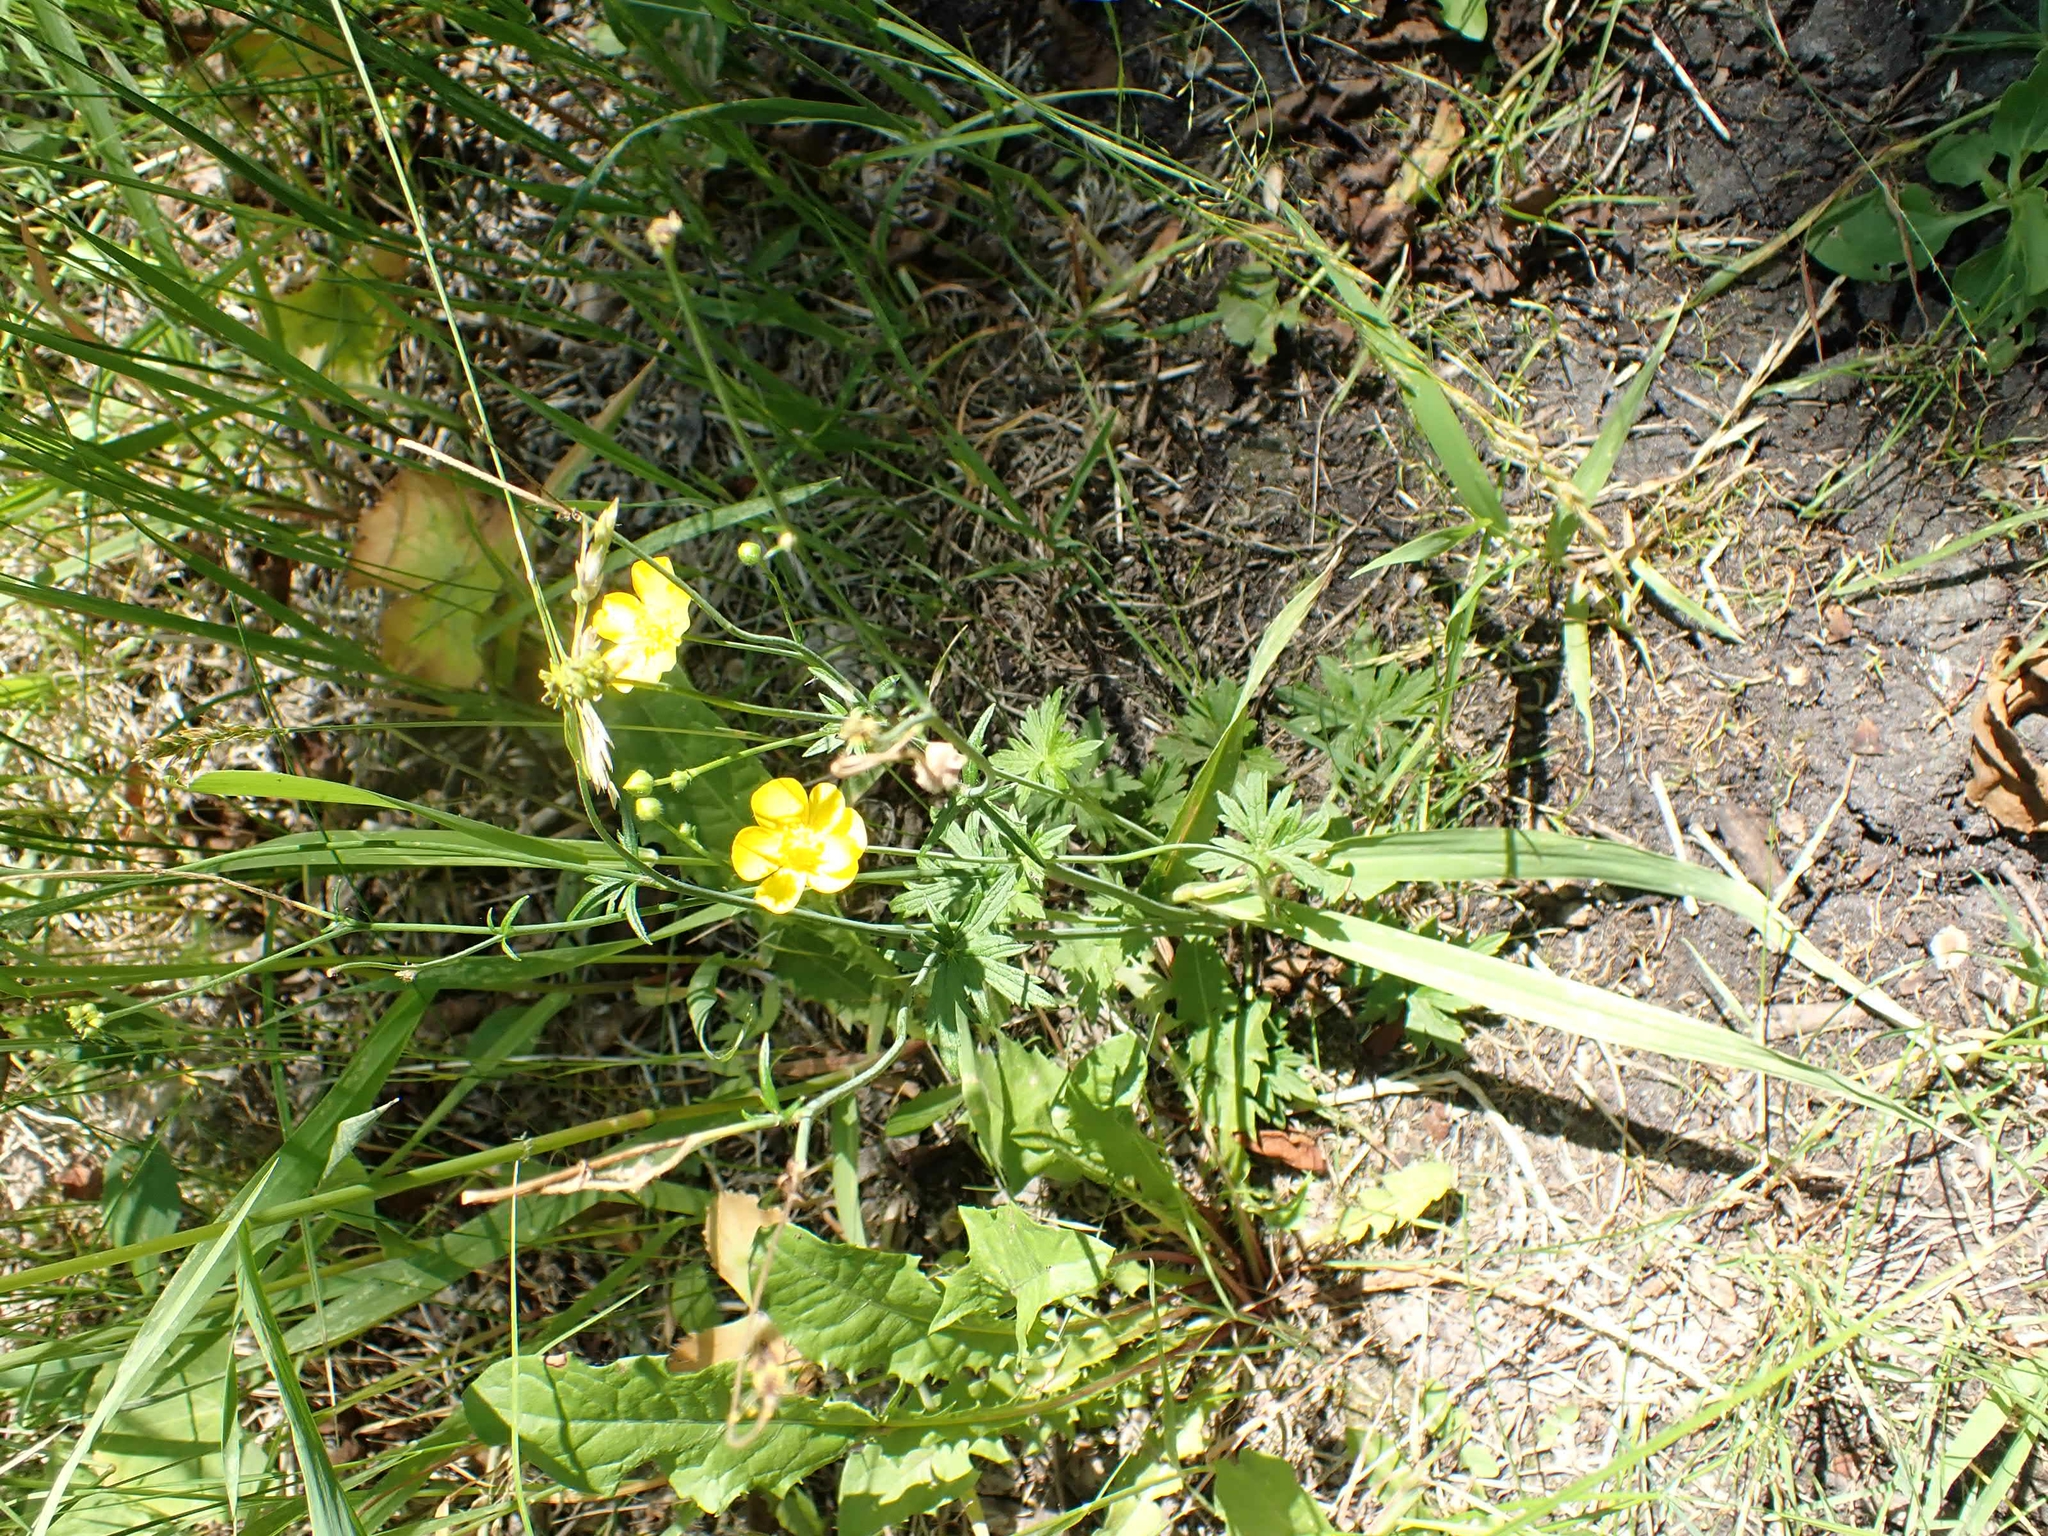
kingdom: Plantae
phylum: Tracheophyta
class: Magnoliopsida
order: Ranunculales
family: Ranunculaceae
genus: Ranunculus
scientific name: Ranunculus acris
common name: Meadow buttercup
